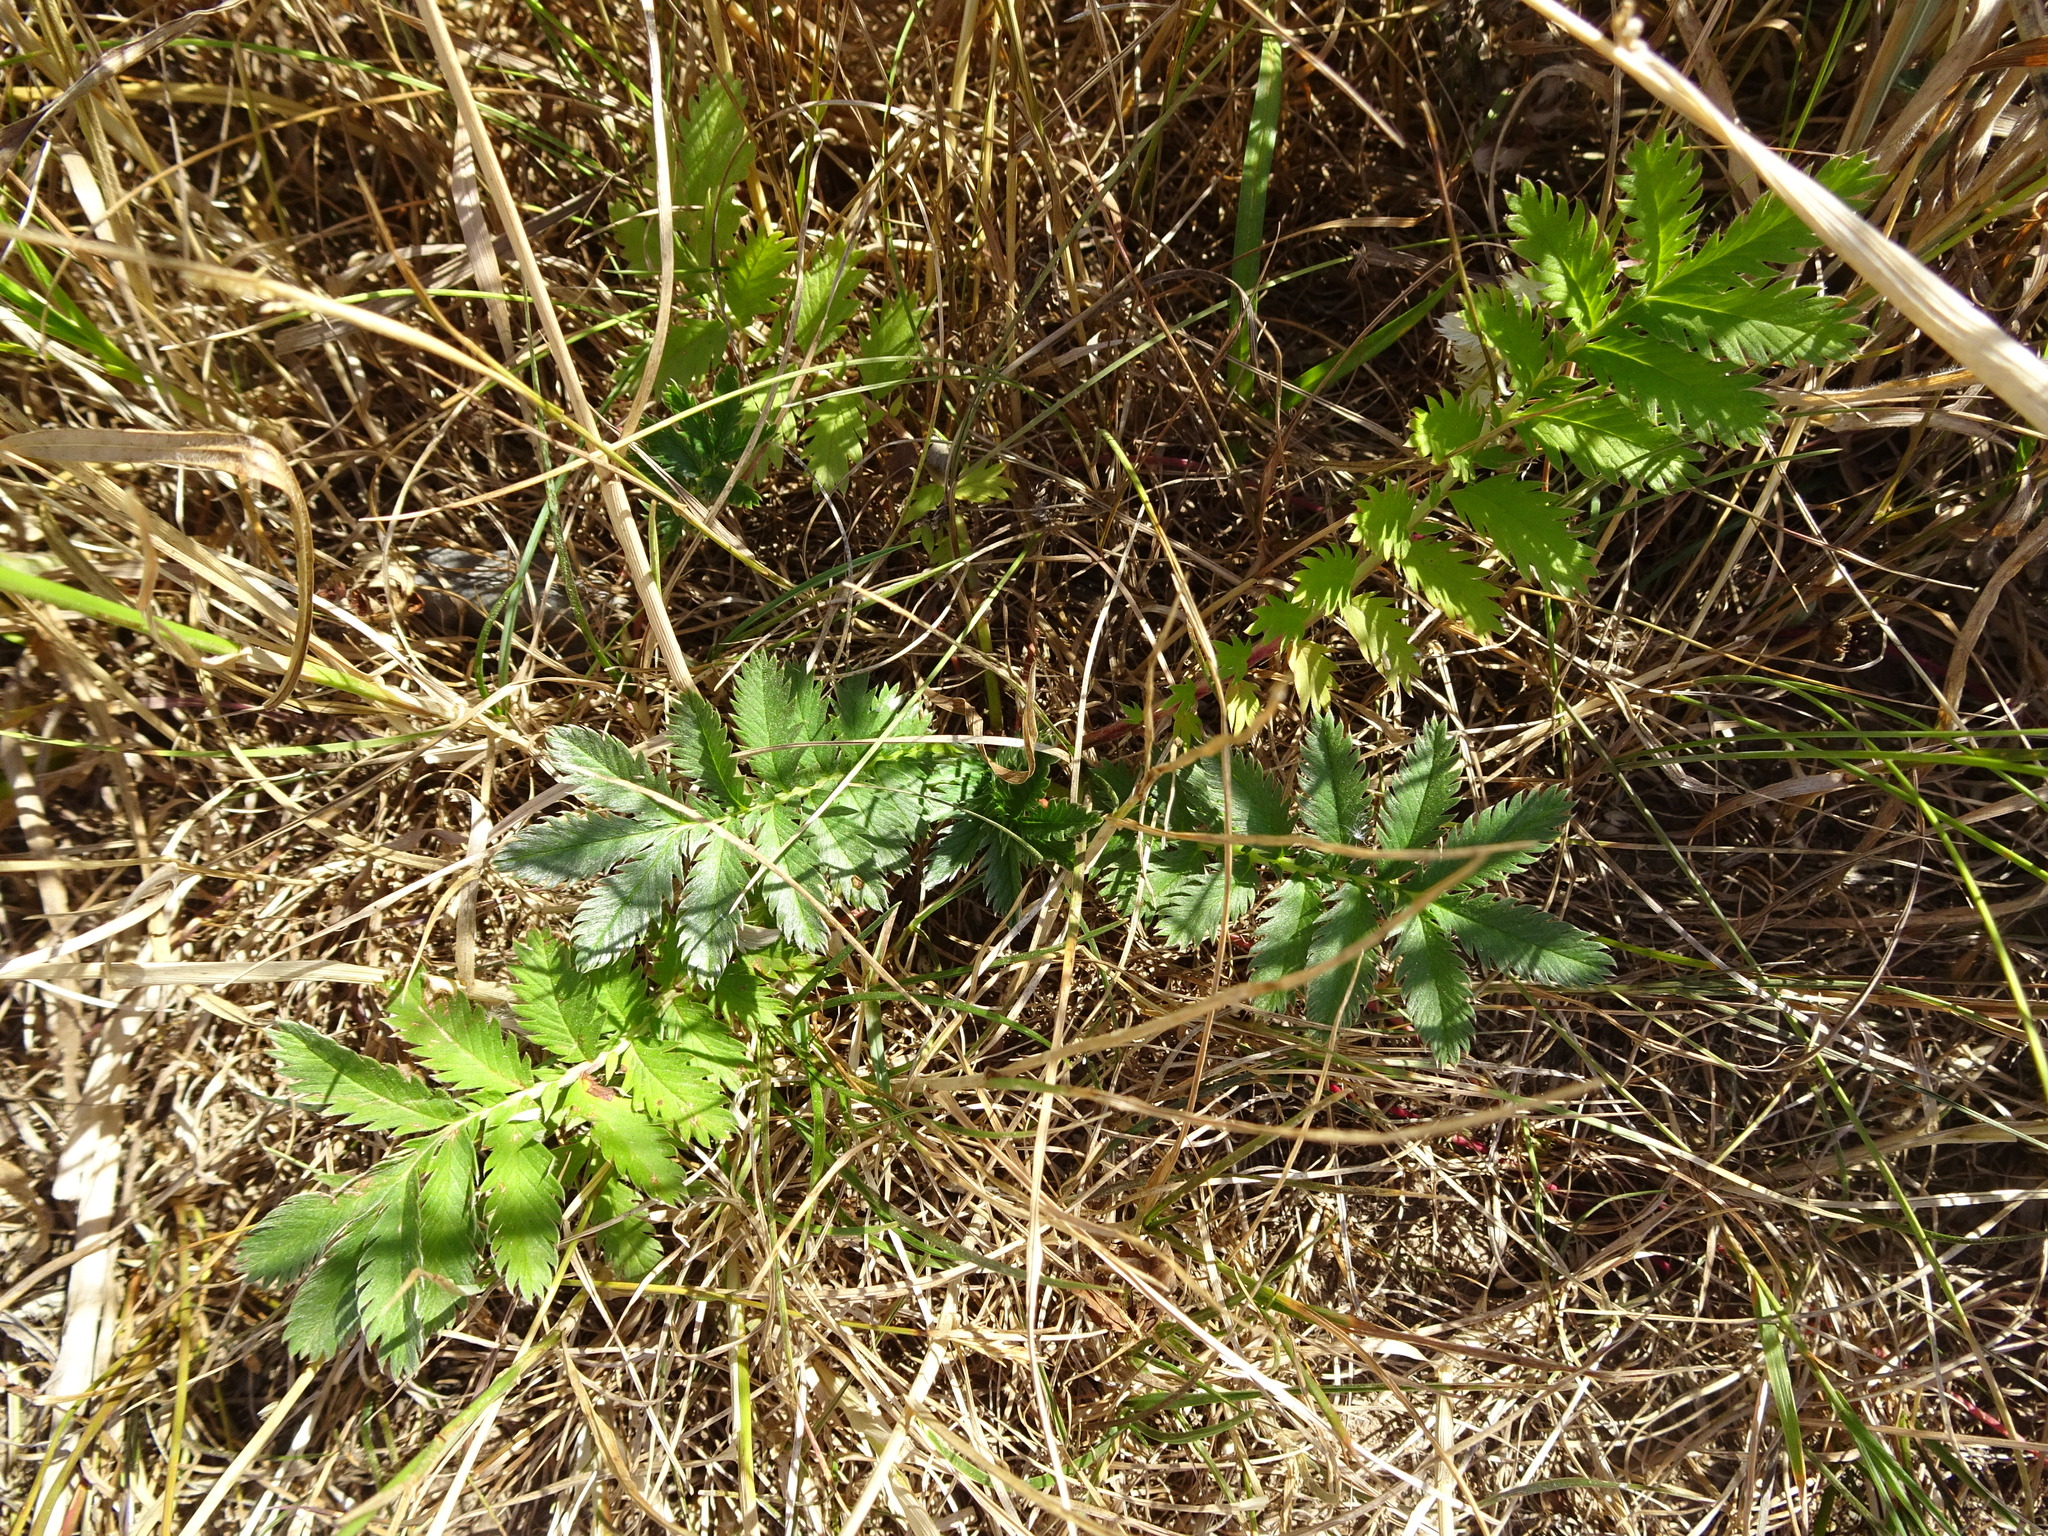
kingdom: Plantae
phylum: Tracheophyta
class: Magnoliopsida
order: Rosales
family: Rosaceae
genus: Argentina
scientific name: Argentina anserina
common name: Common silverweed
